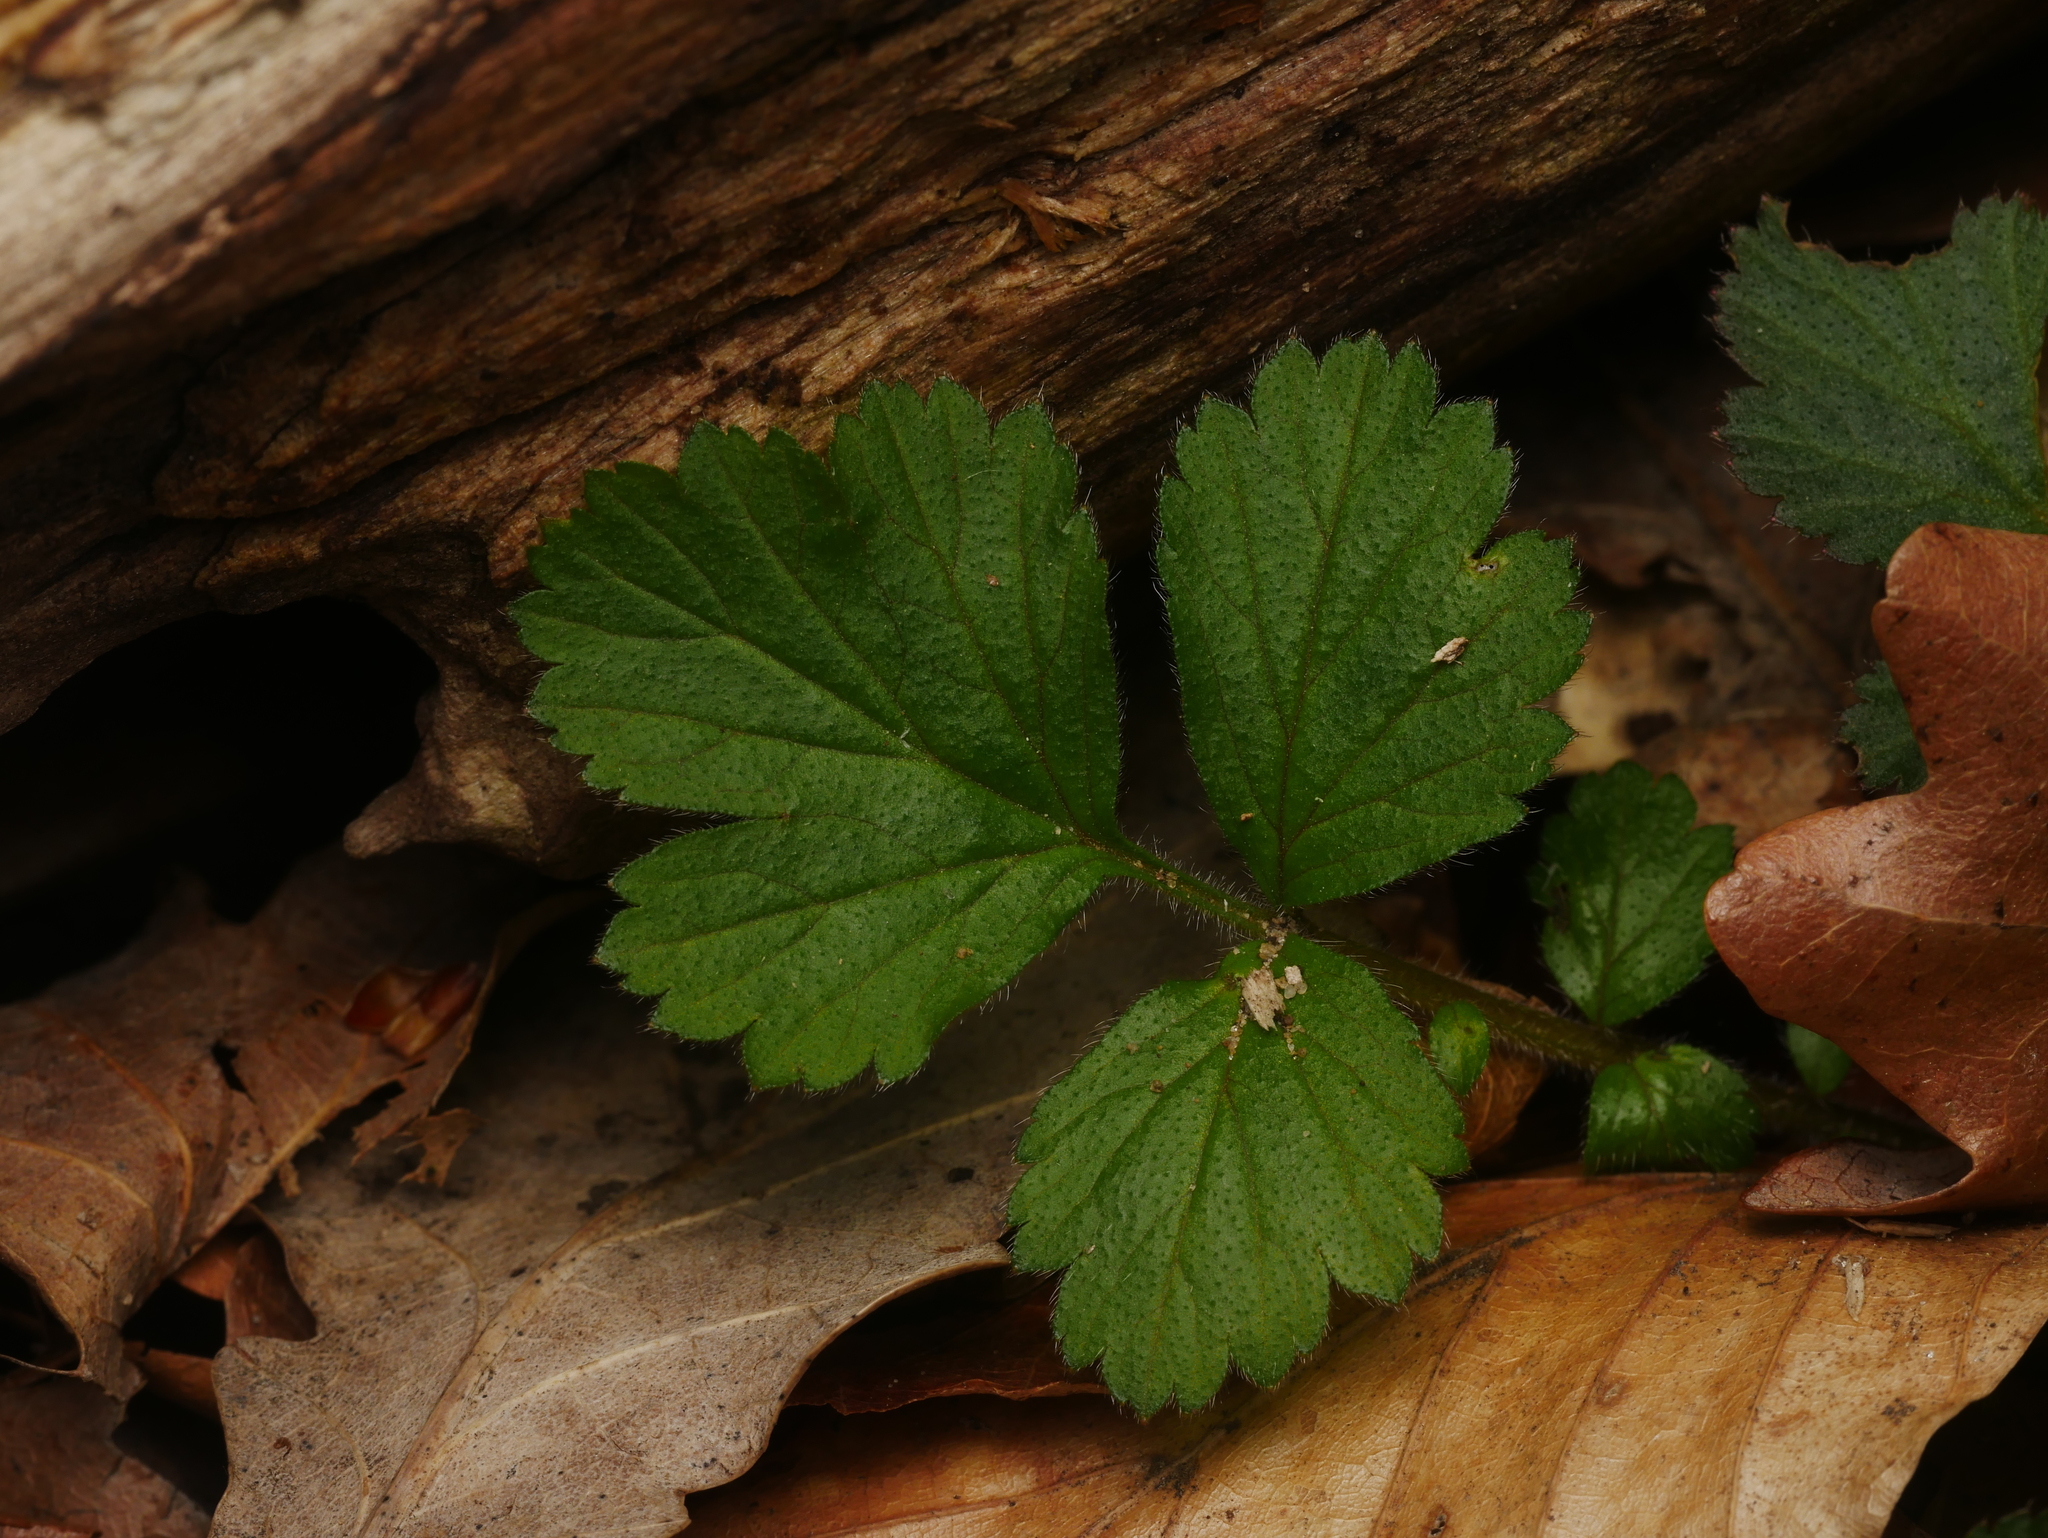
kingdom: Plantae
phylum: Tracheophyta
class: Magnoliopsida
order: Rosales
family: Rosaceae
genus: Geum
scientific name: Geum urbanum
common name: Wood avens
